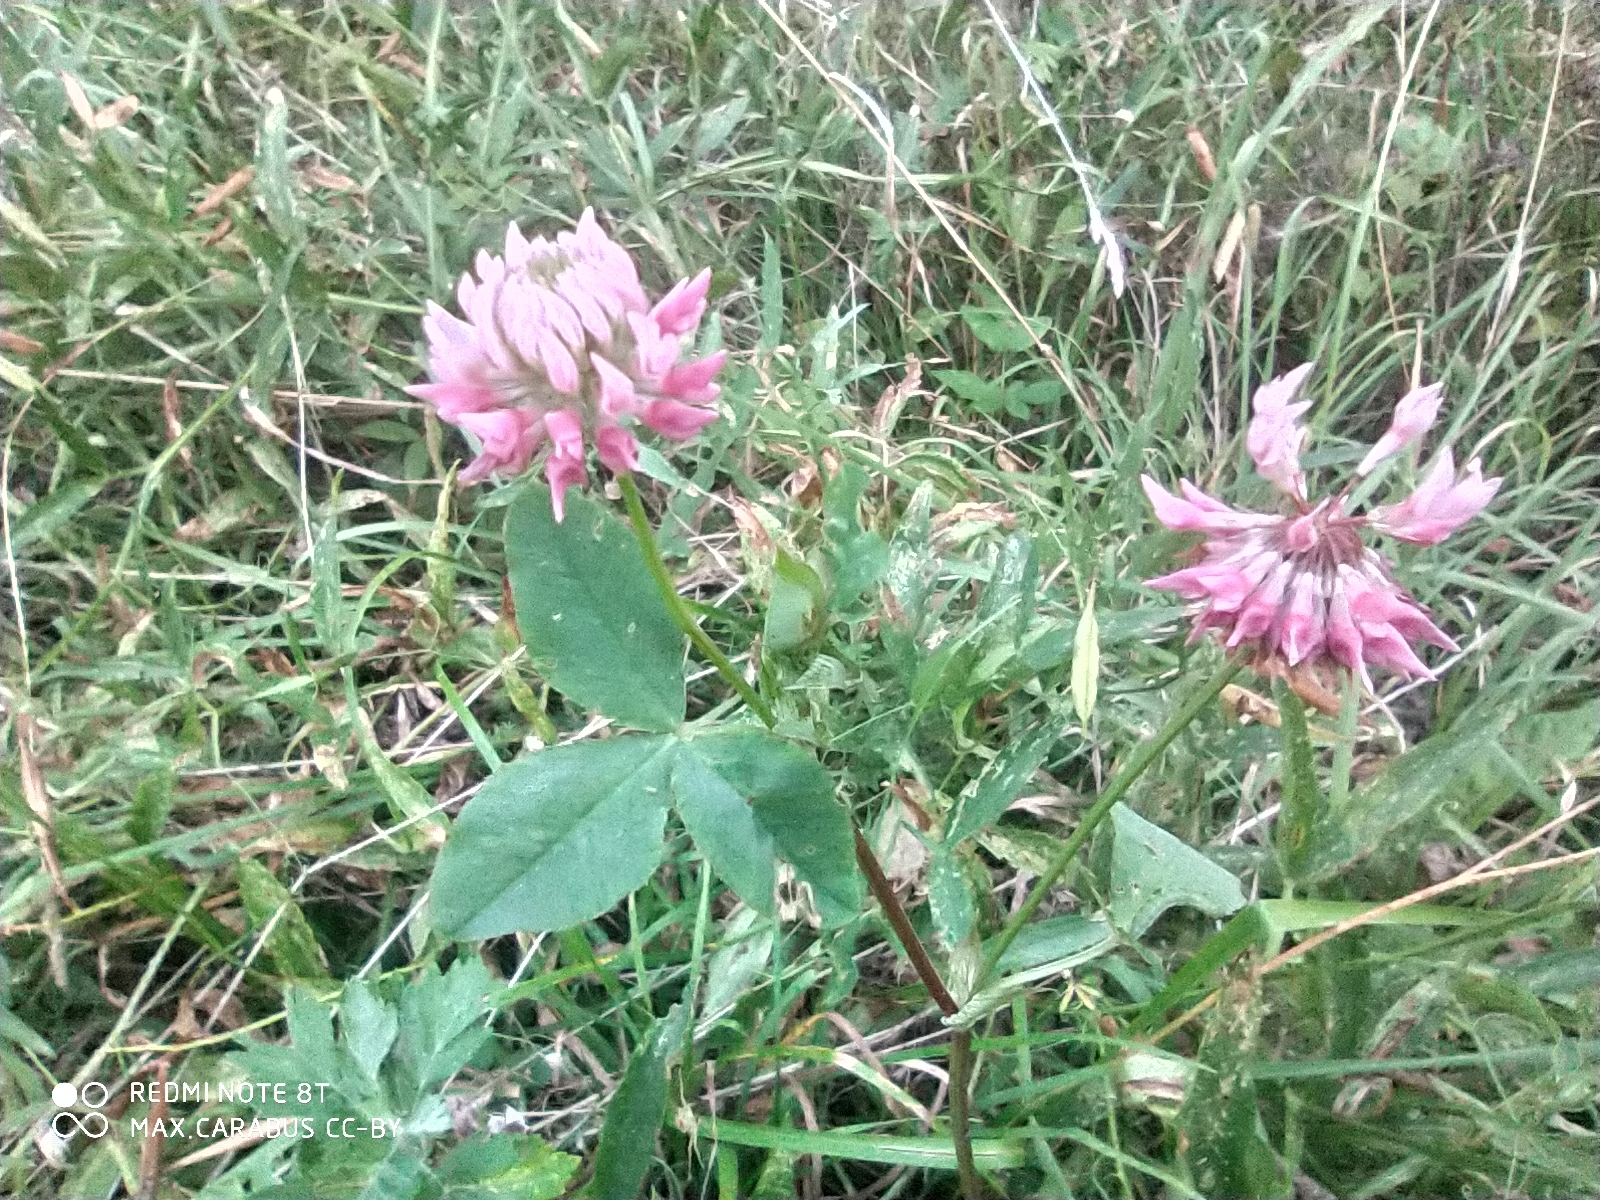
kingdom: Plantae
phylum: Tracheophyta
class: Magnoliopsida
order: Fabales
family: Fabaceae
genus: Trifolium
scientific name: Trifolium hybridum
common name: Alsike clover
